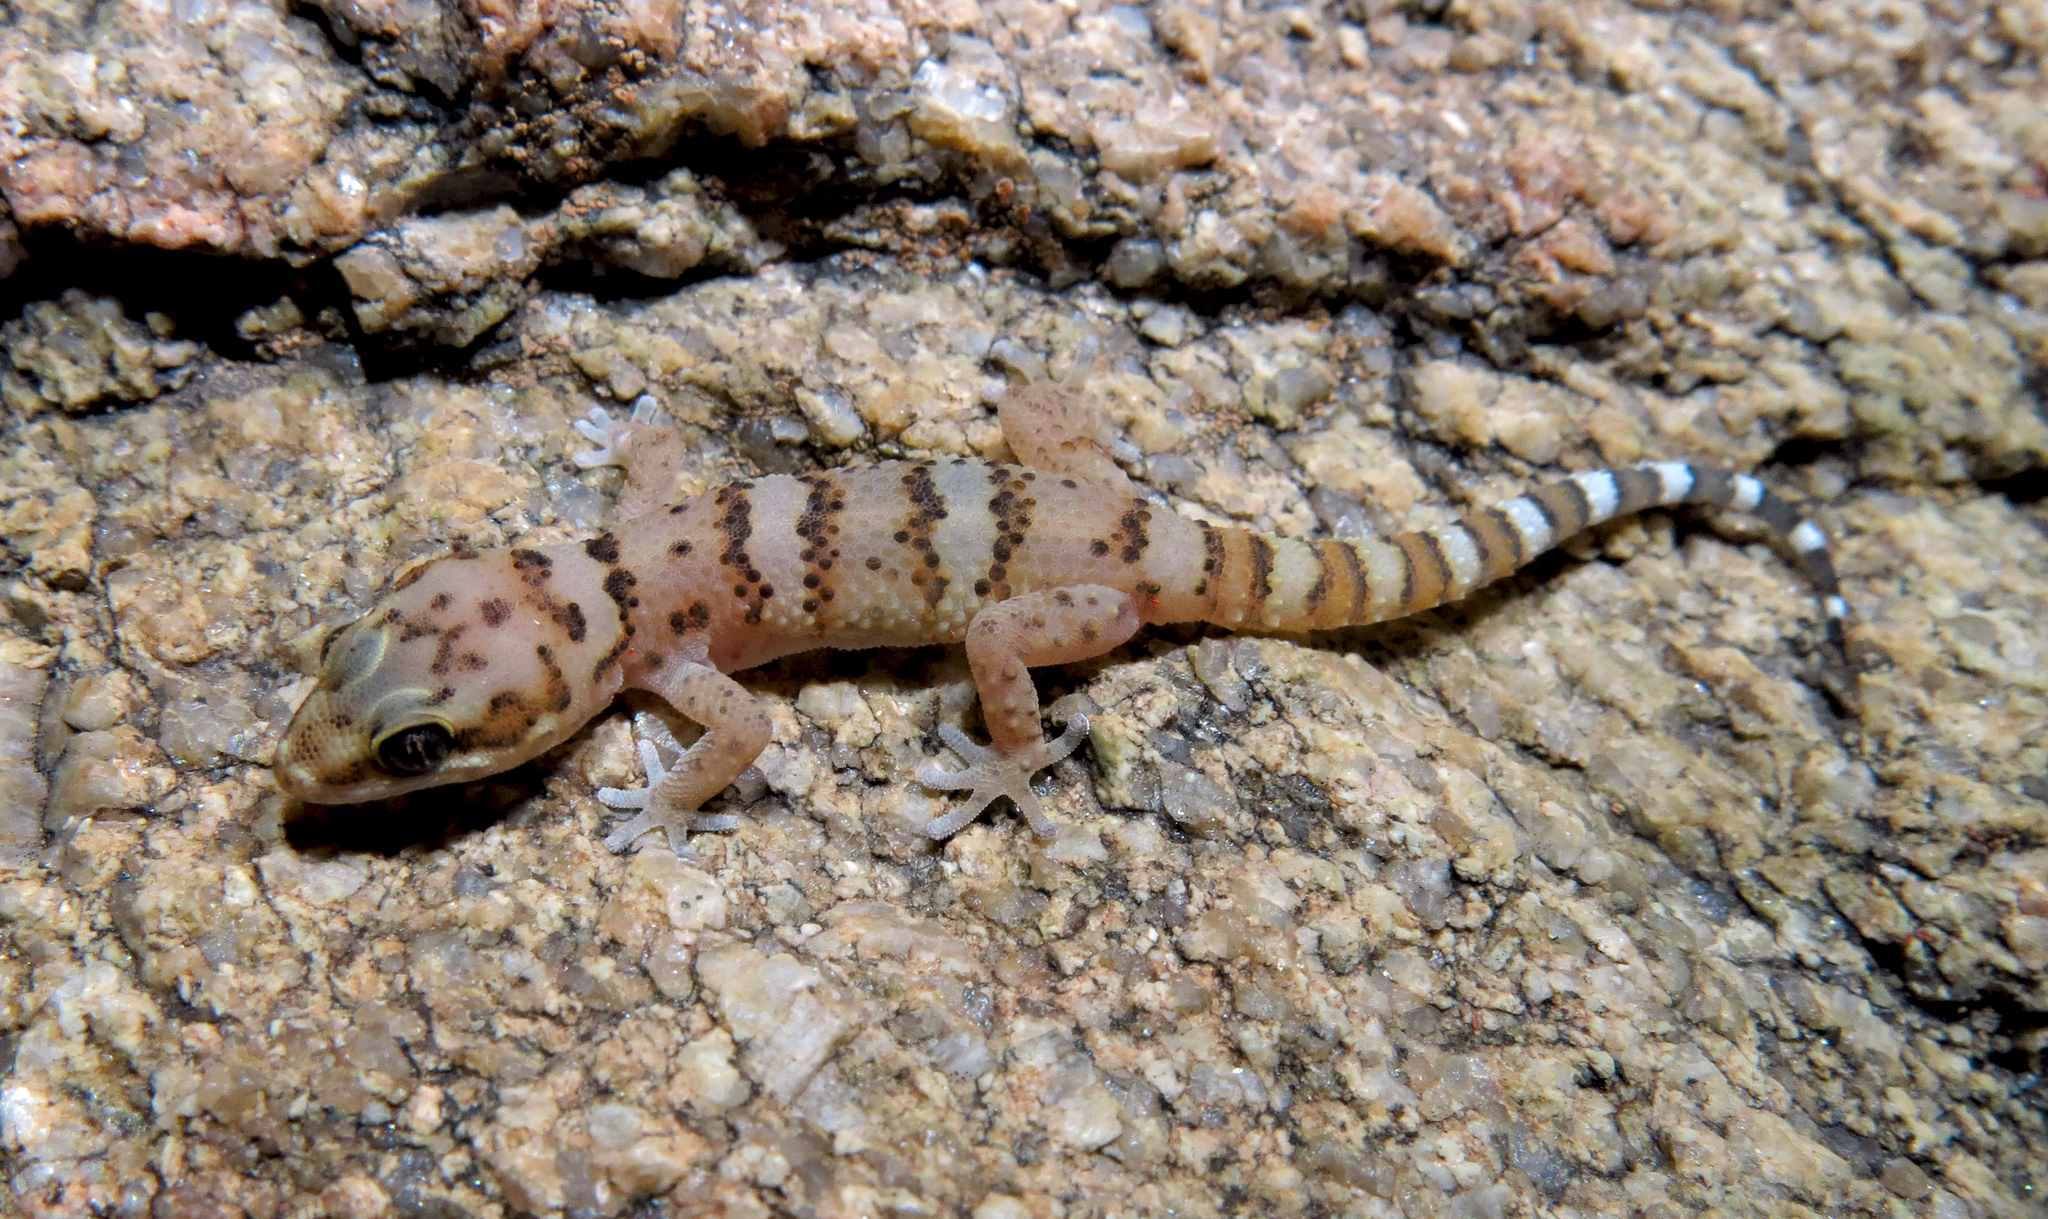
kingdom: Animalia
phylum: Chordata
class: Squamata
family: Gekkonidae
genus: Pachydactylus
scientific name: Pachydactylus weberi
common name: Weber's gecko
